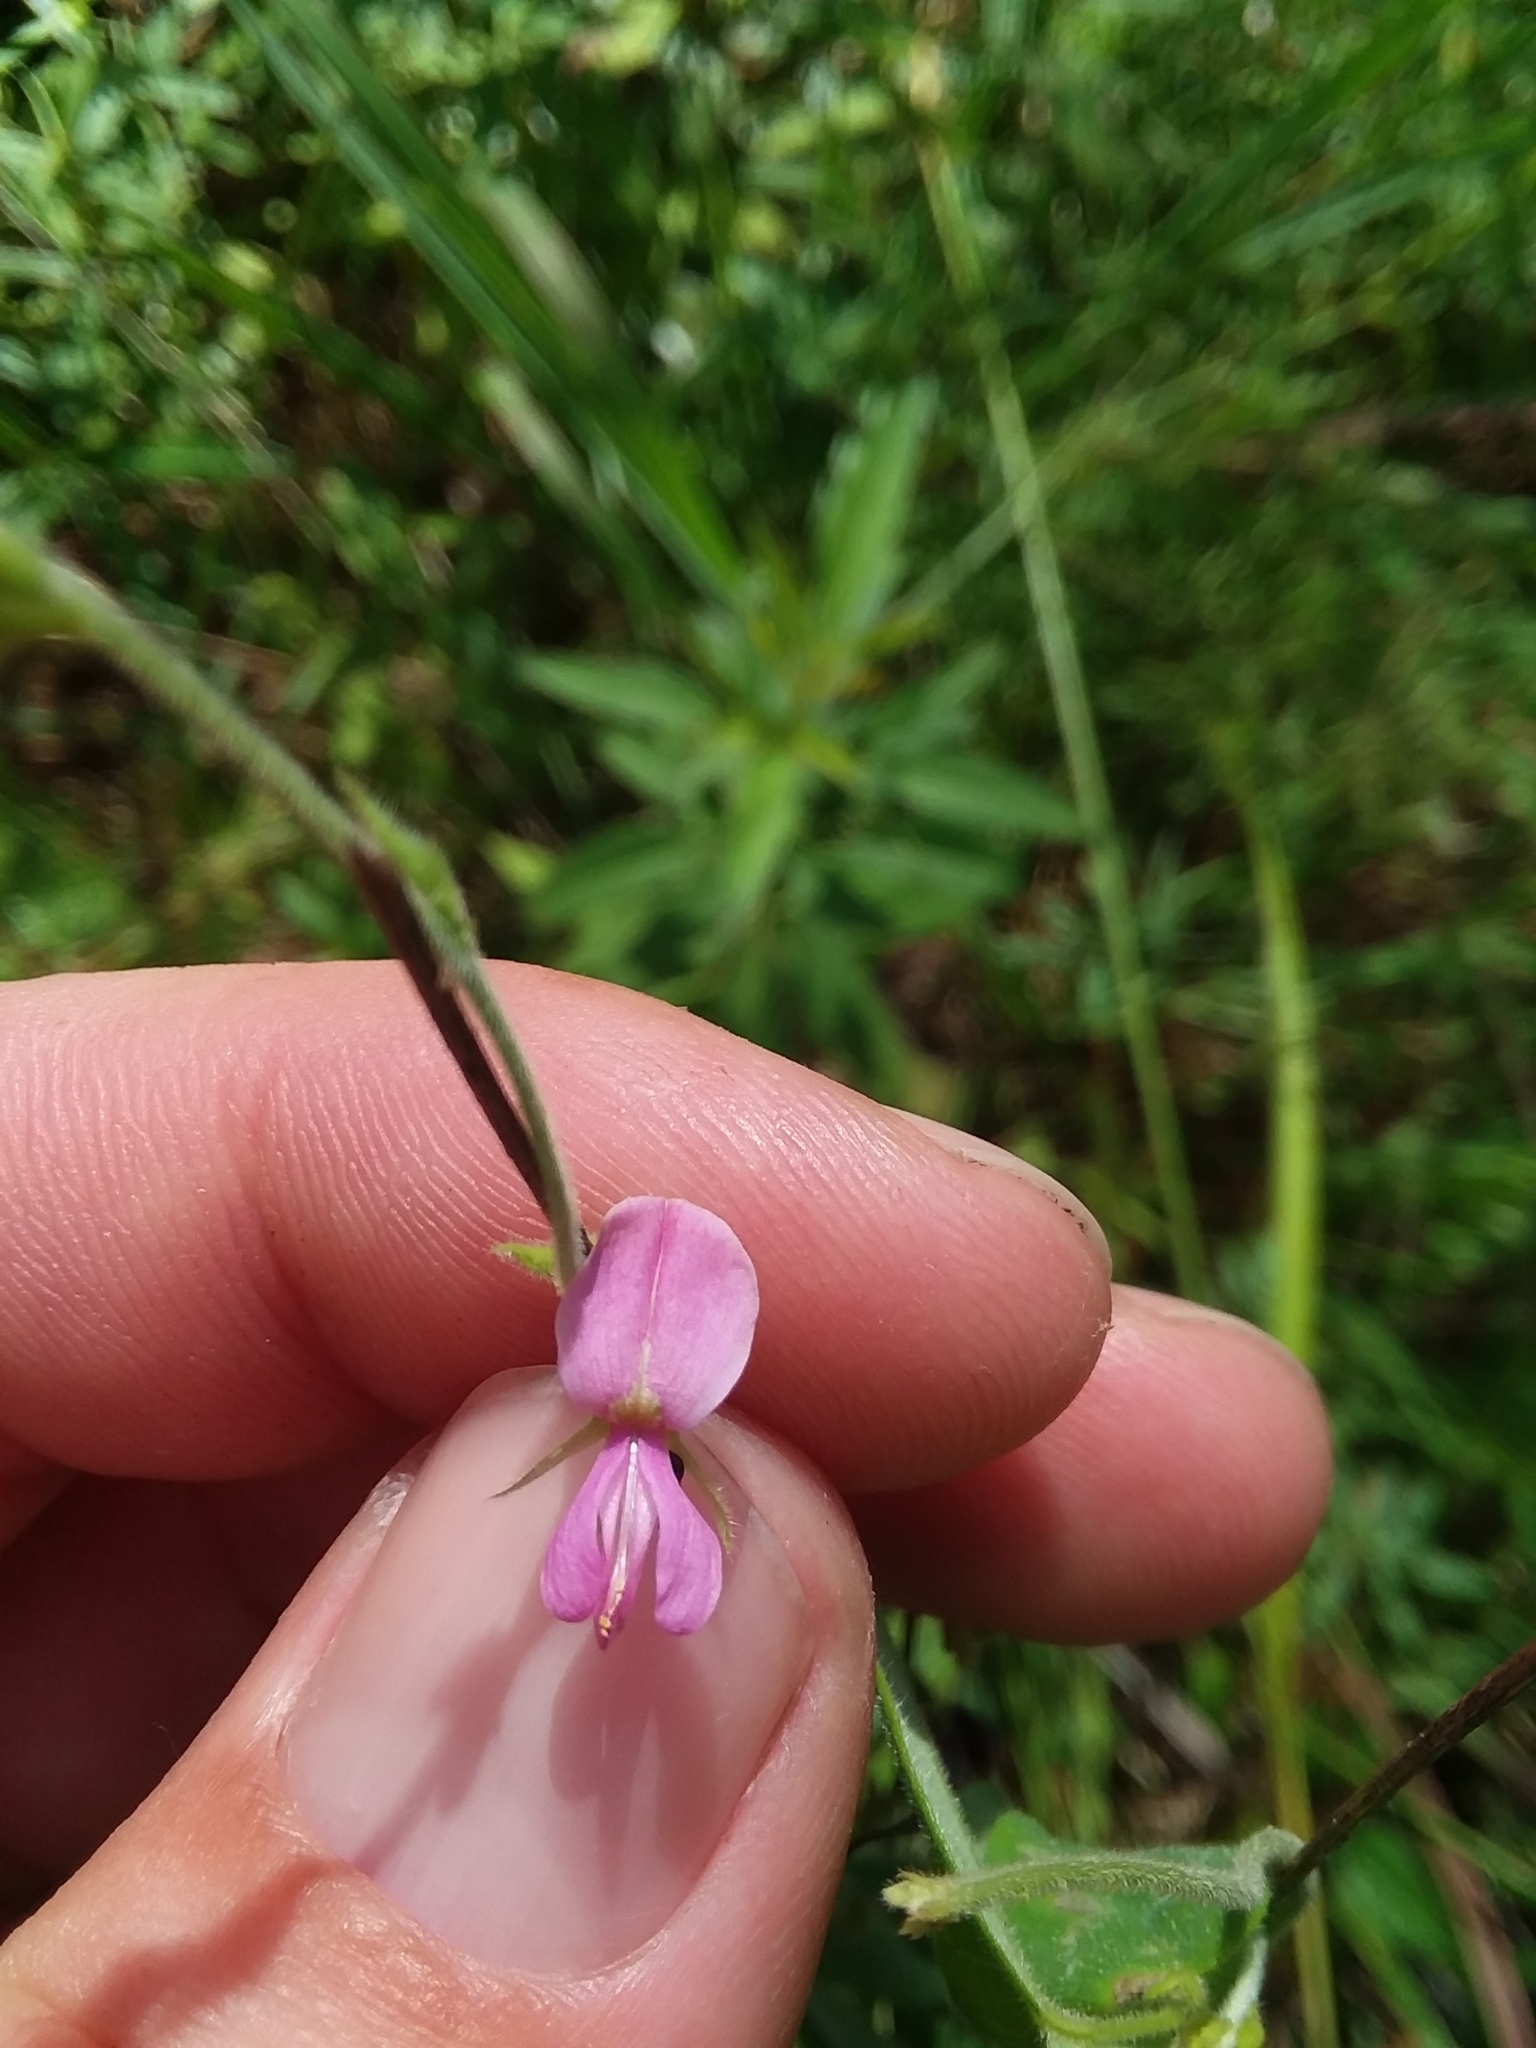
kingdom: Plantae
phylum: Tracheophyta
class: Magnoliopsida
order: Fabales
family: Fabaceae
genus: Galactia
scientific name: Galactia regularis
